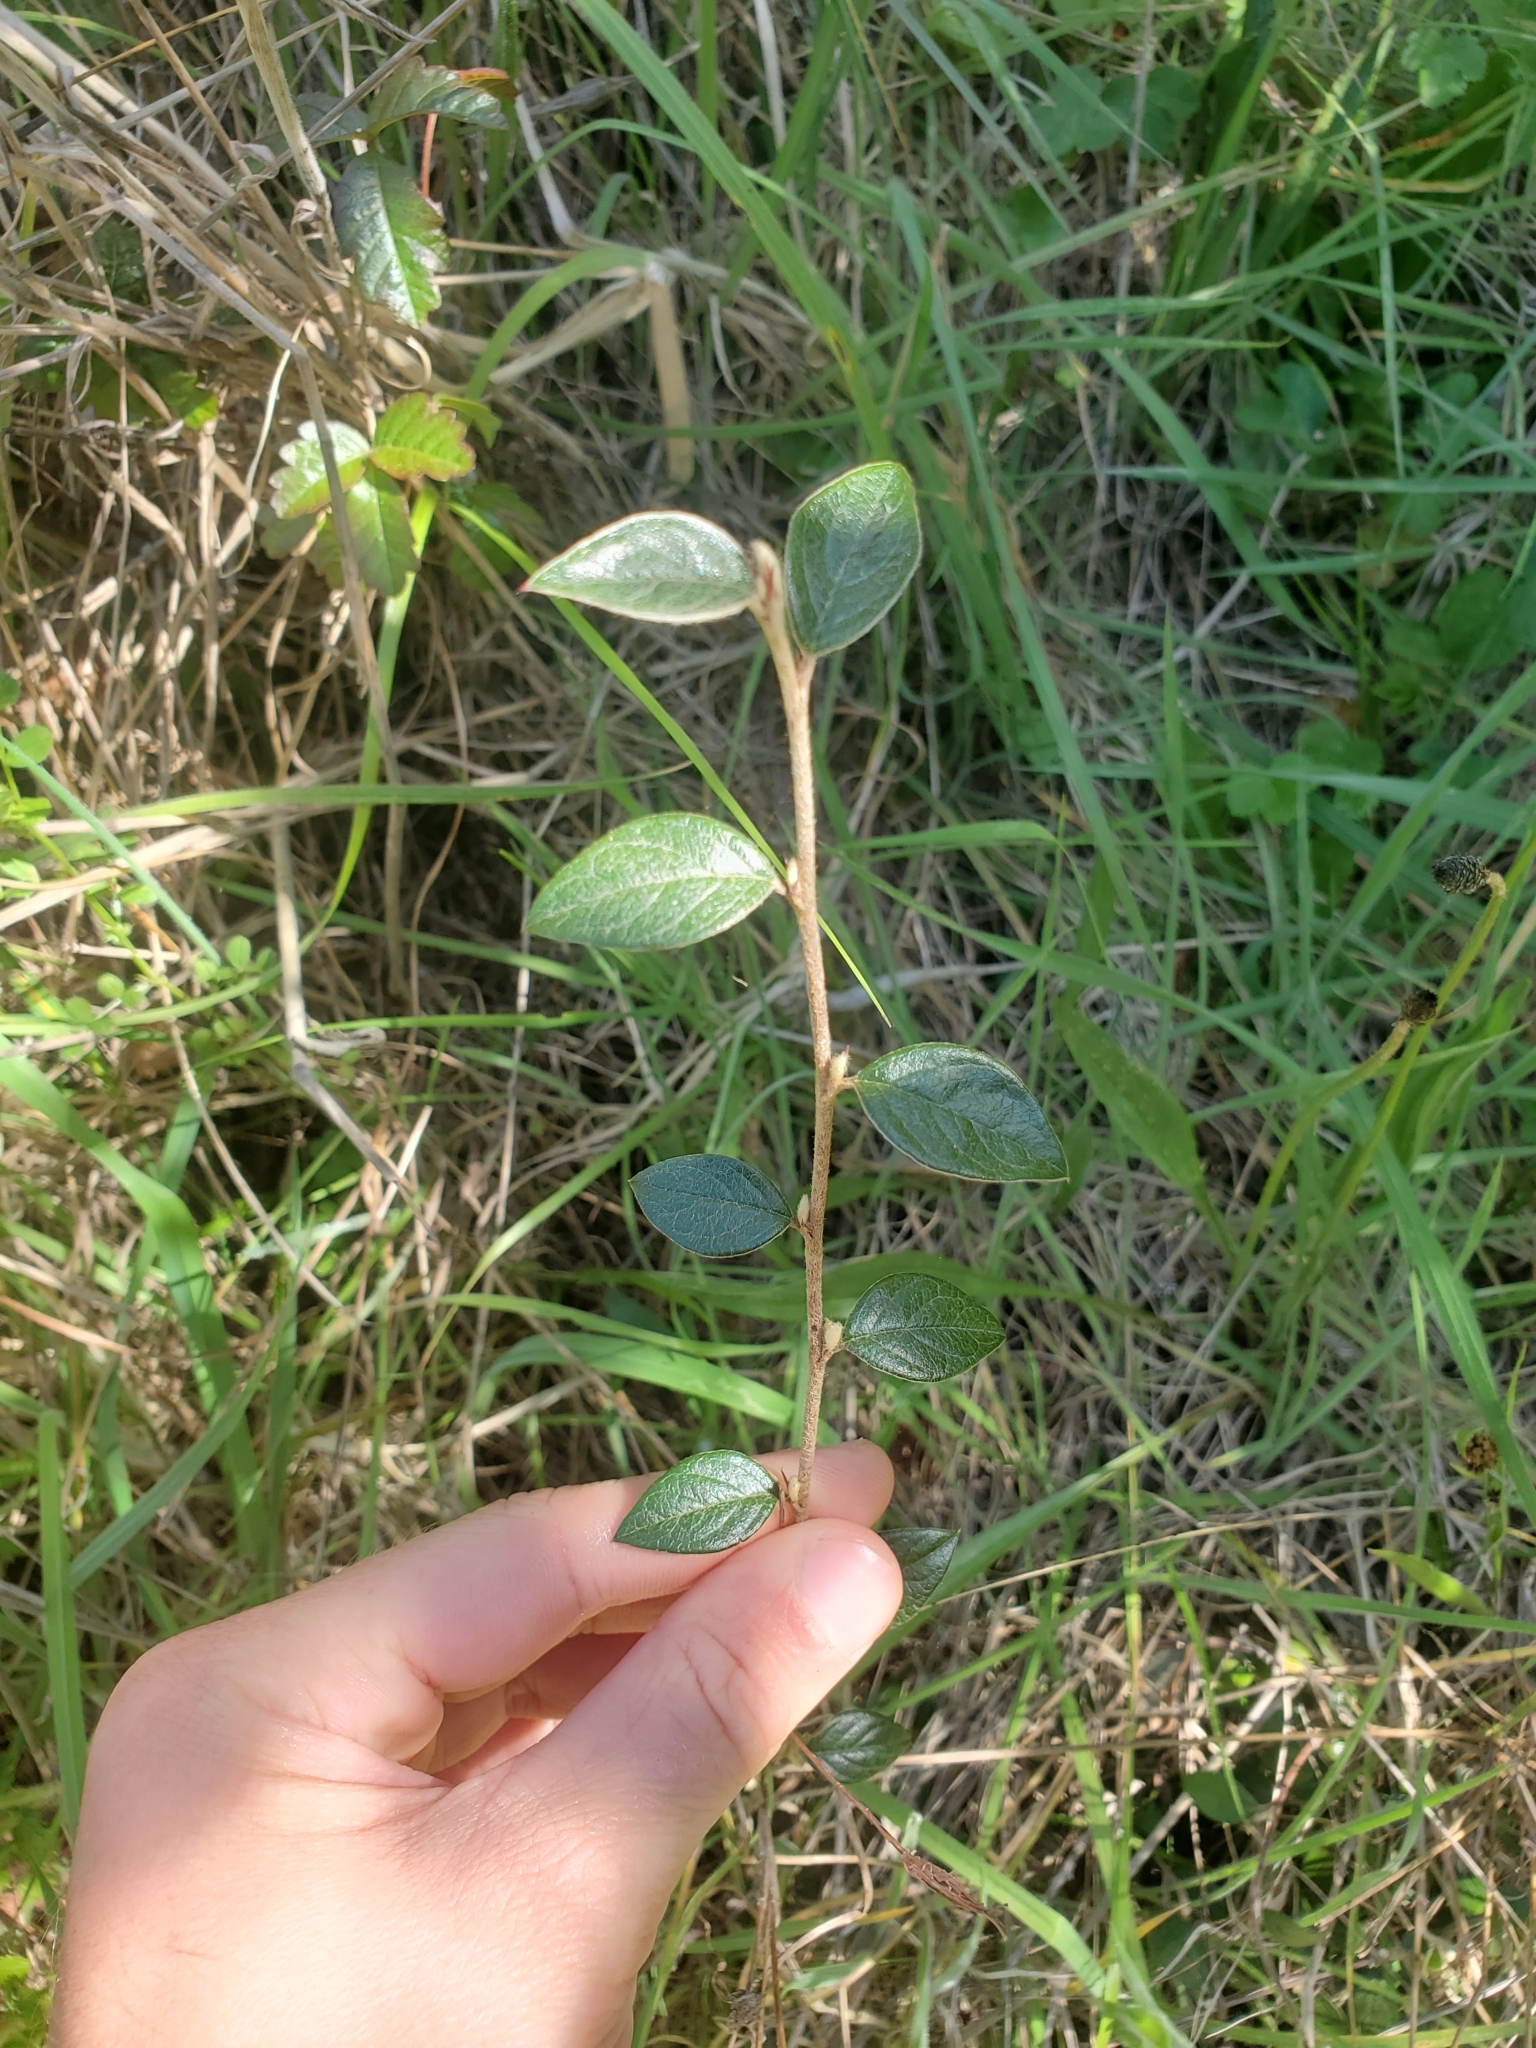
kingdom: Plantae
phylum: Tracheophyta
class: Magnoliopsida
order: Rosales
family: Rosaceae
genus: Cotoneaster
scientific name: Cotoneaster franchetii
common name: Franchet's cotoneaster
